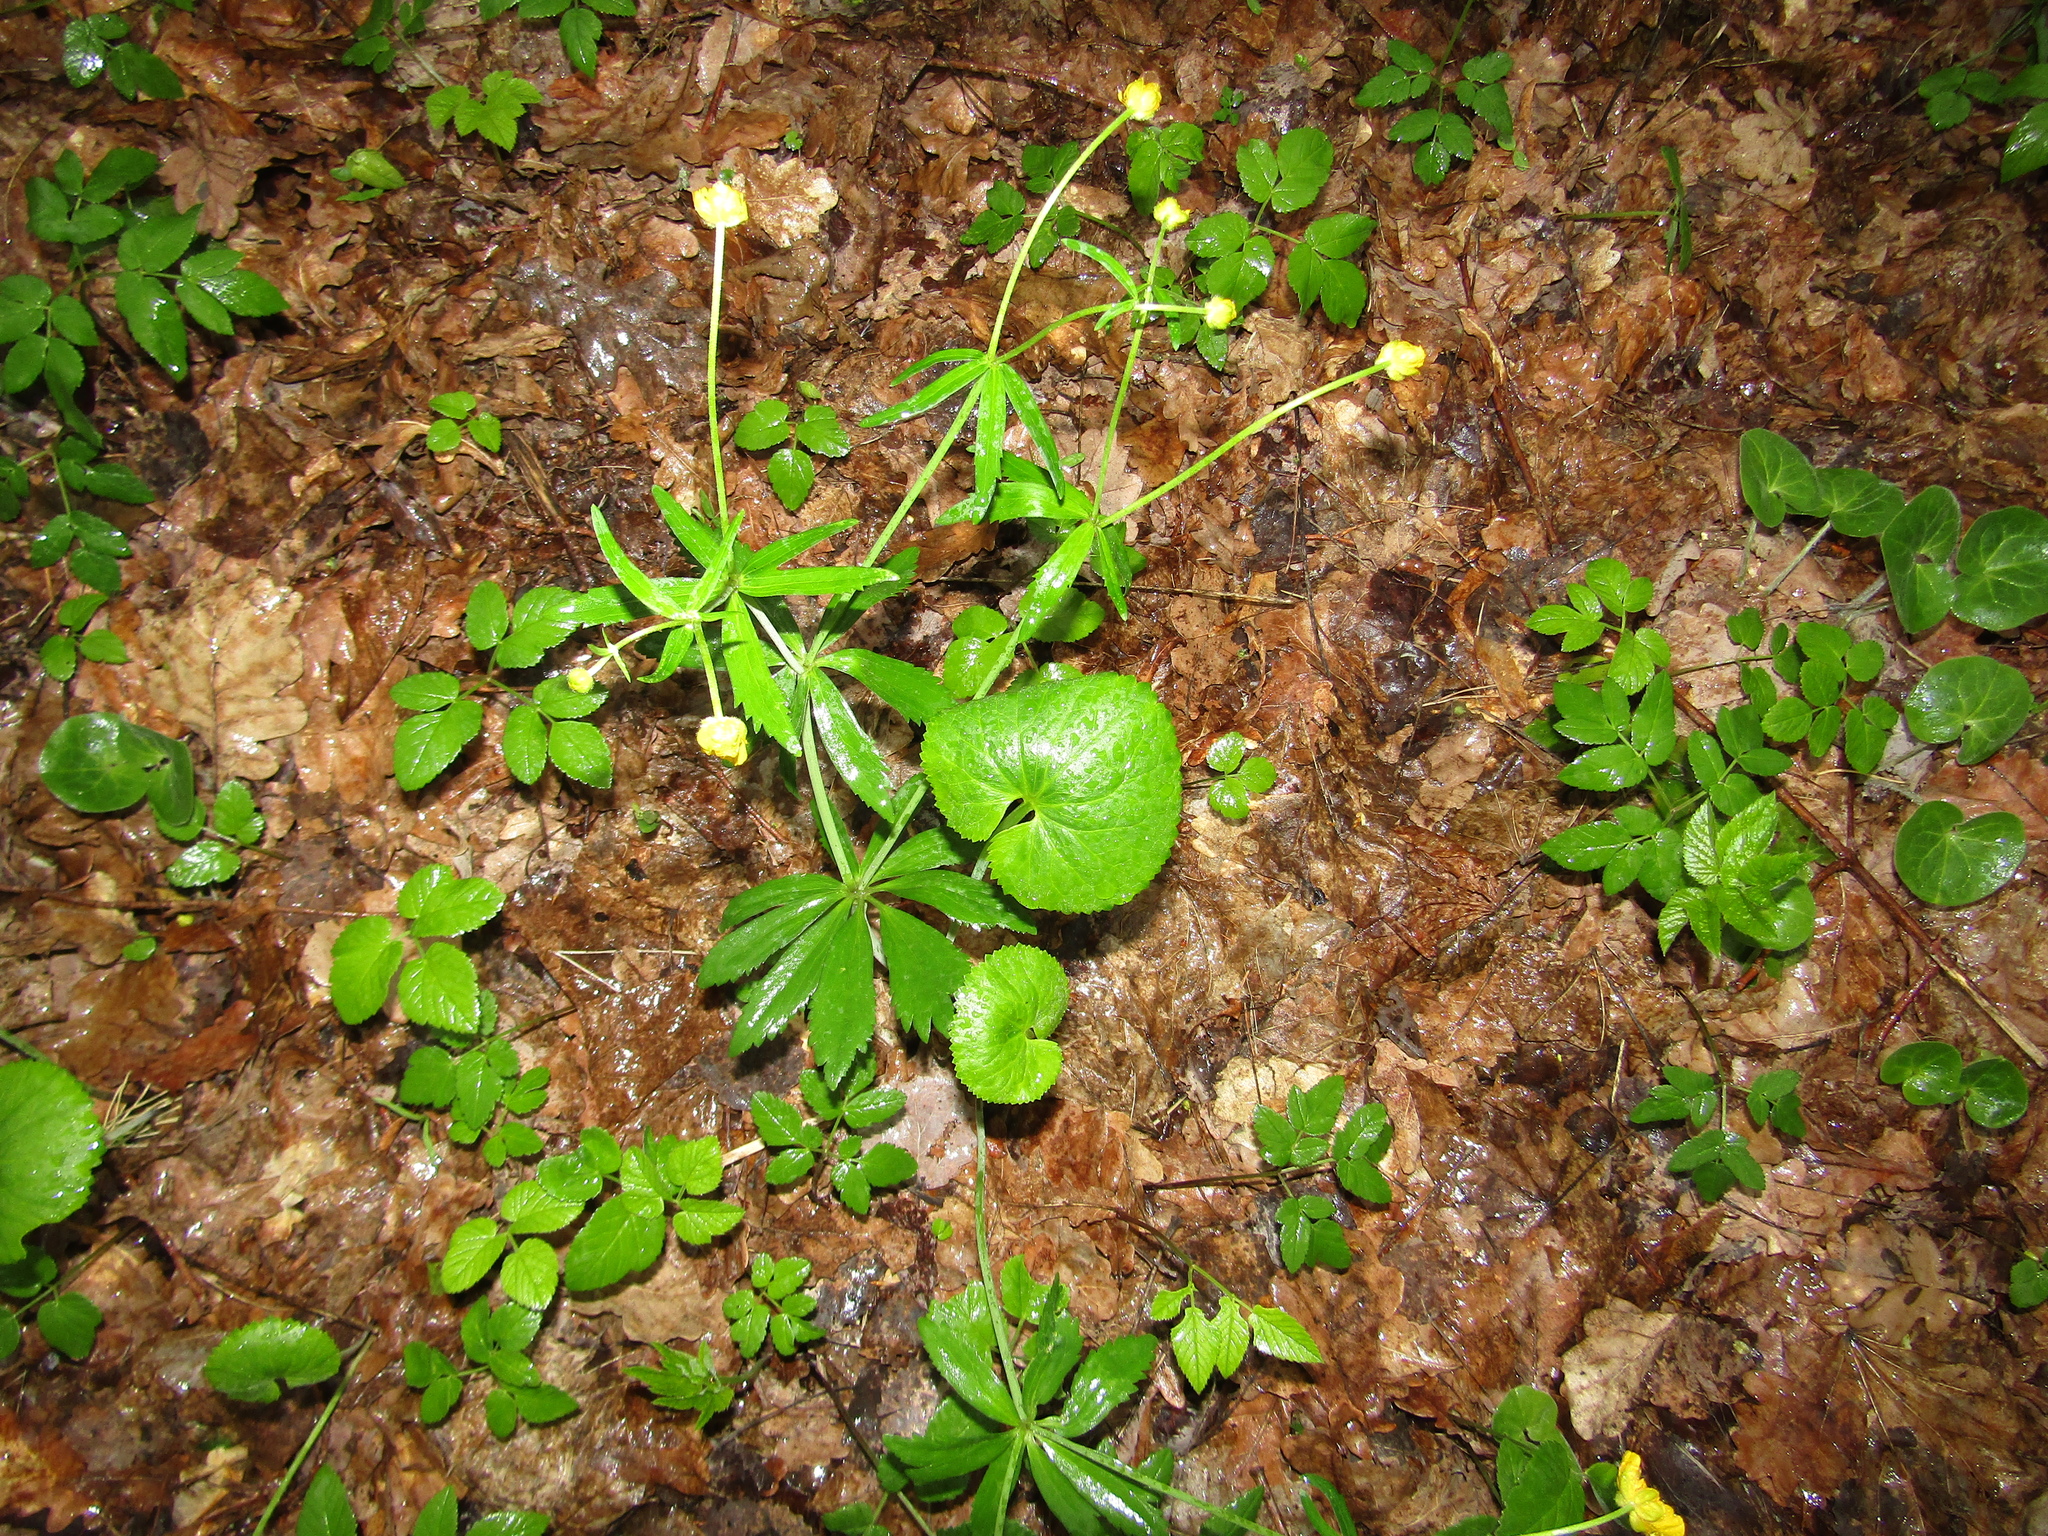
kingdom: Plantae
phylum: Tracheophyta
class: Magnoliopsida
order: Ranunculales
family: Ranunculaceae
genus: Ranunculus
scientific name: Ranunculus cassubicus
